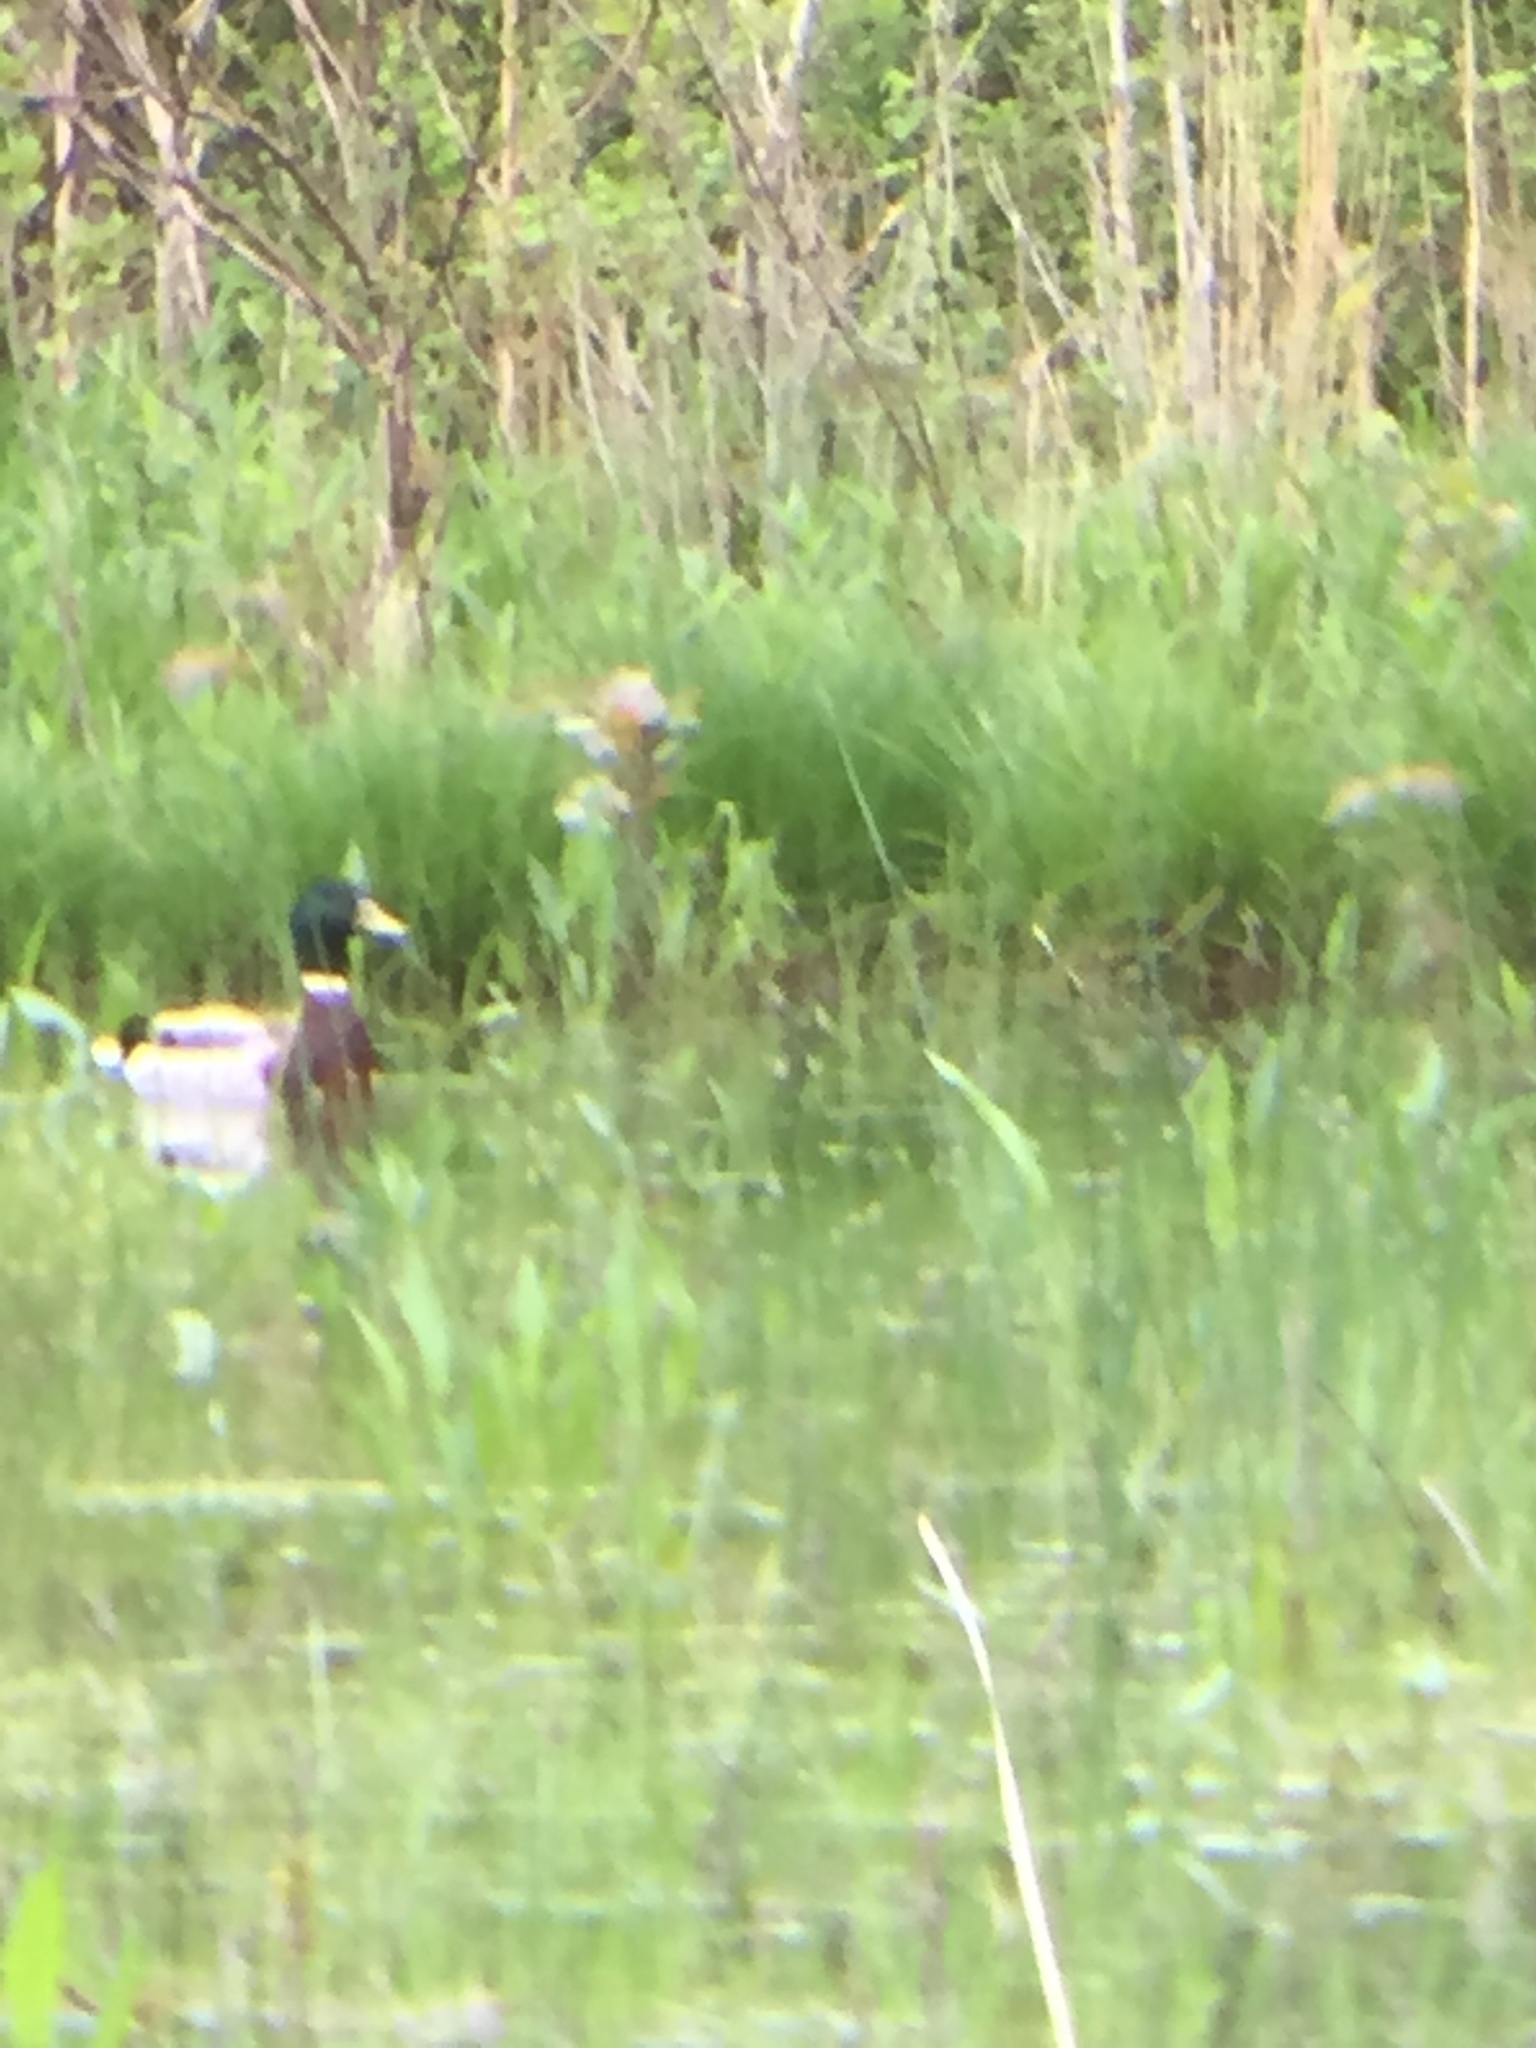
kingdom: Animalia
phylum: Chordata
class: Aves
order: Anseriformes
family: Anatidae
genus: Anas
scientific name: Anas platyrhynchos
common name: Mallard
